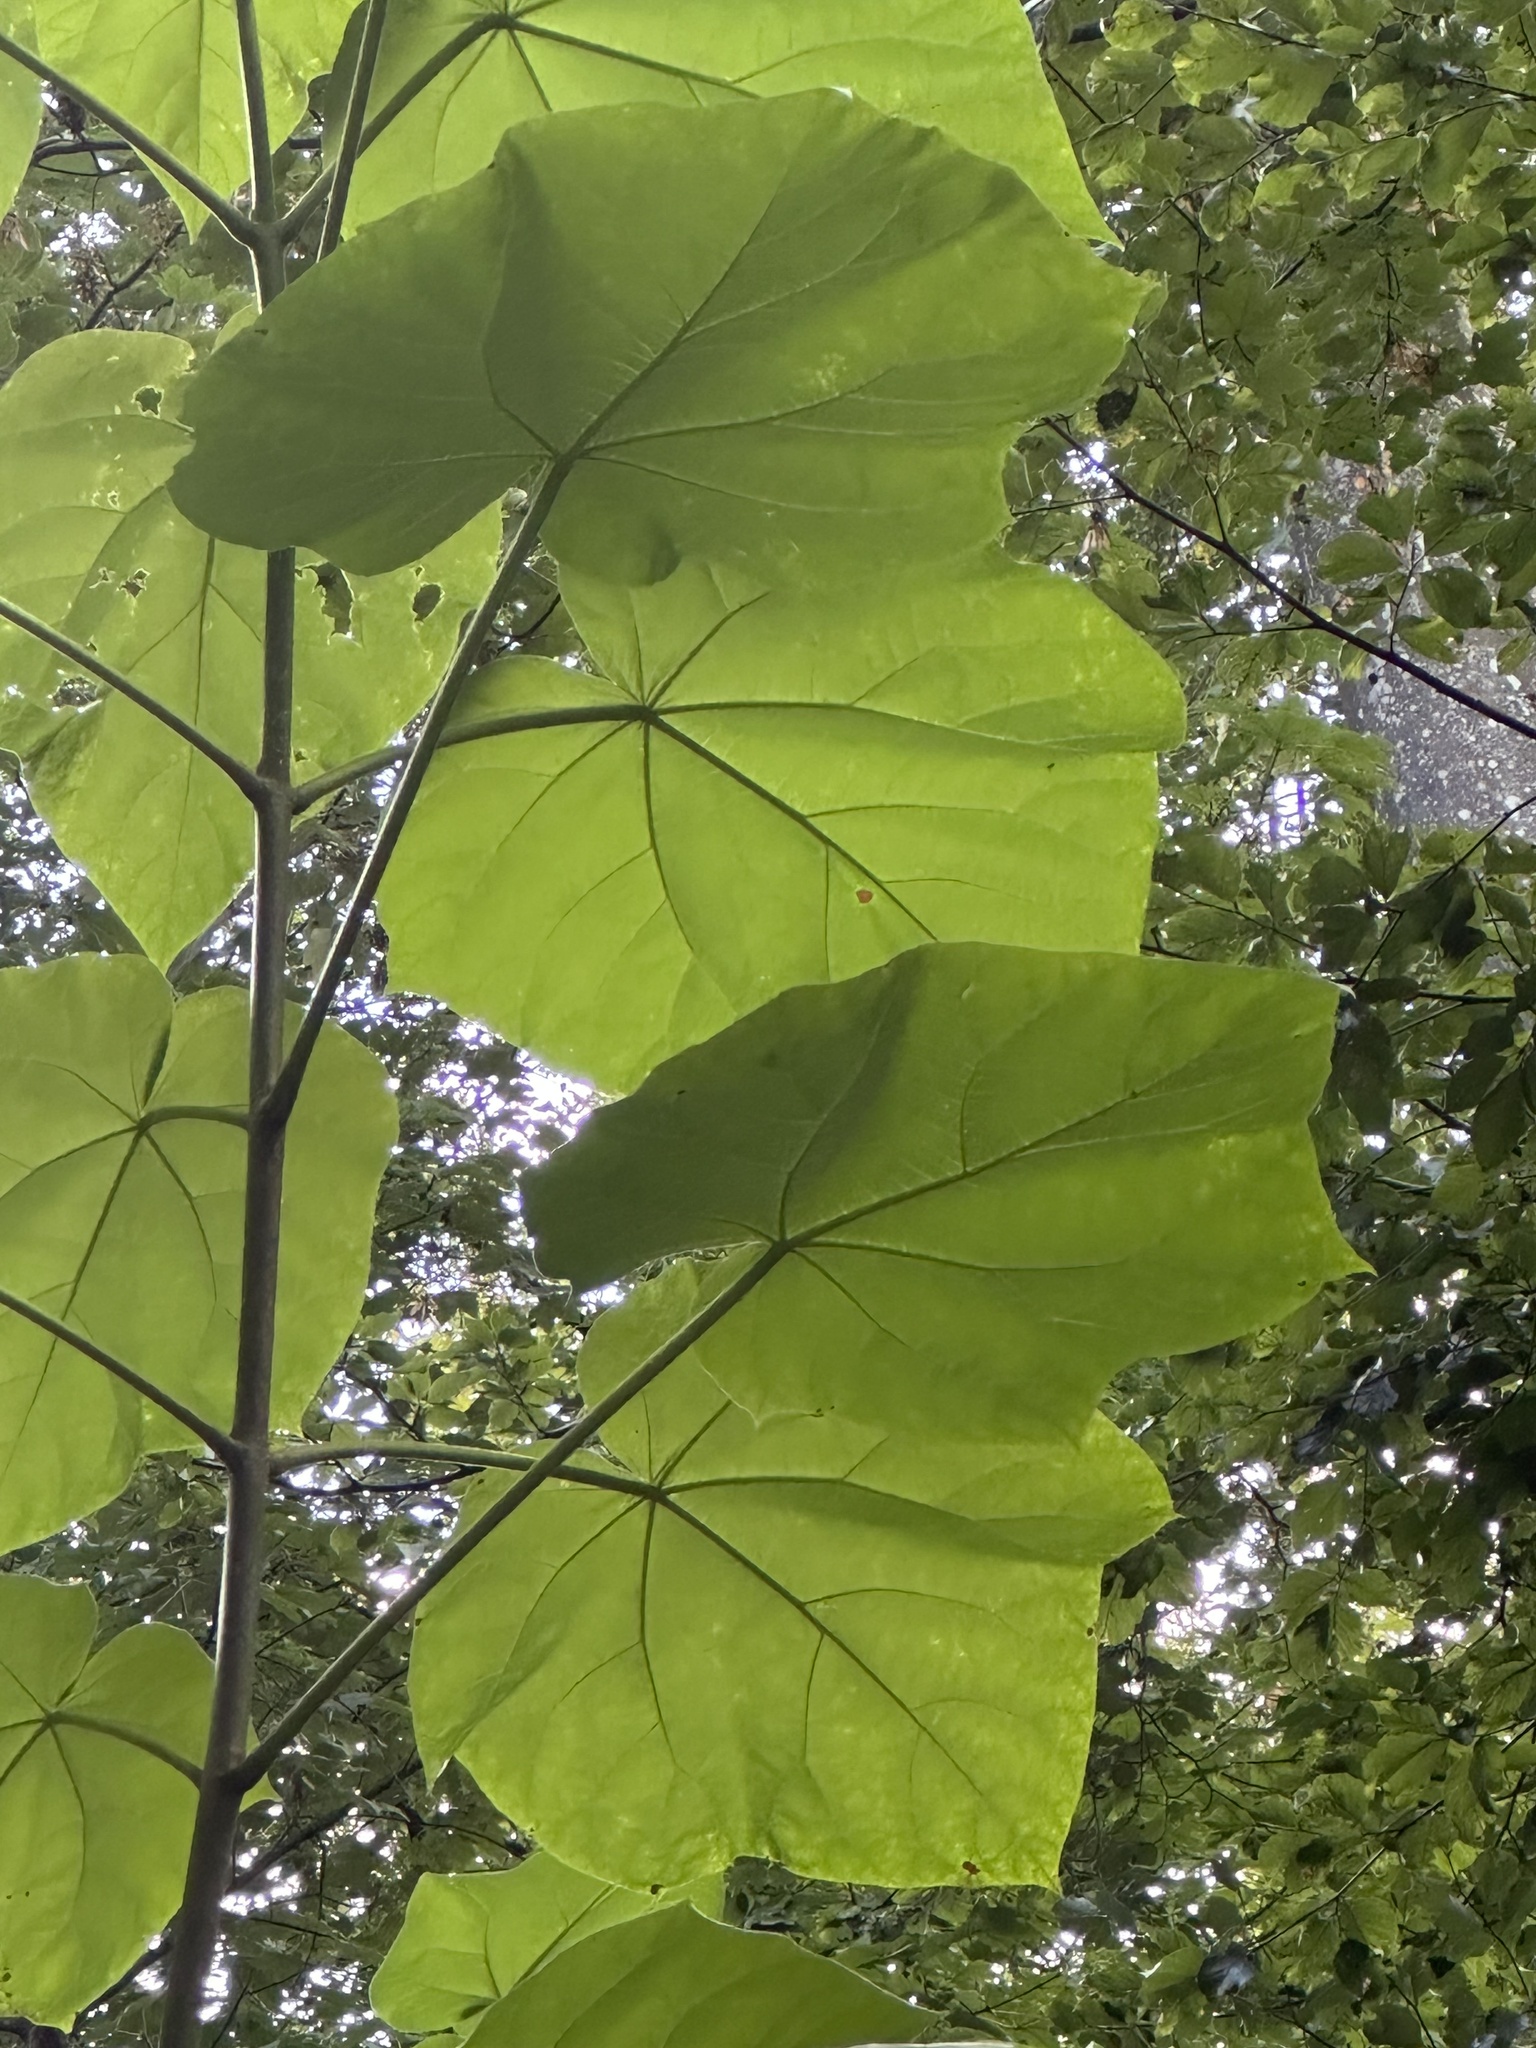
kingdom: Plantae
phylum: Tracheophyta
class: Magnoliopsida
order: Lamiales
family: Paulowniaceae
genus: Paulownia
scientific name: Paulownia tomentosa
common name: Foxglove-tree
